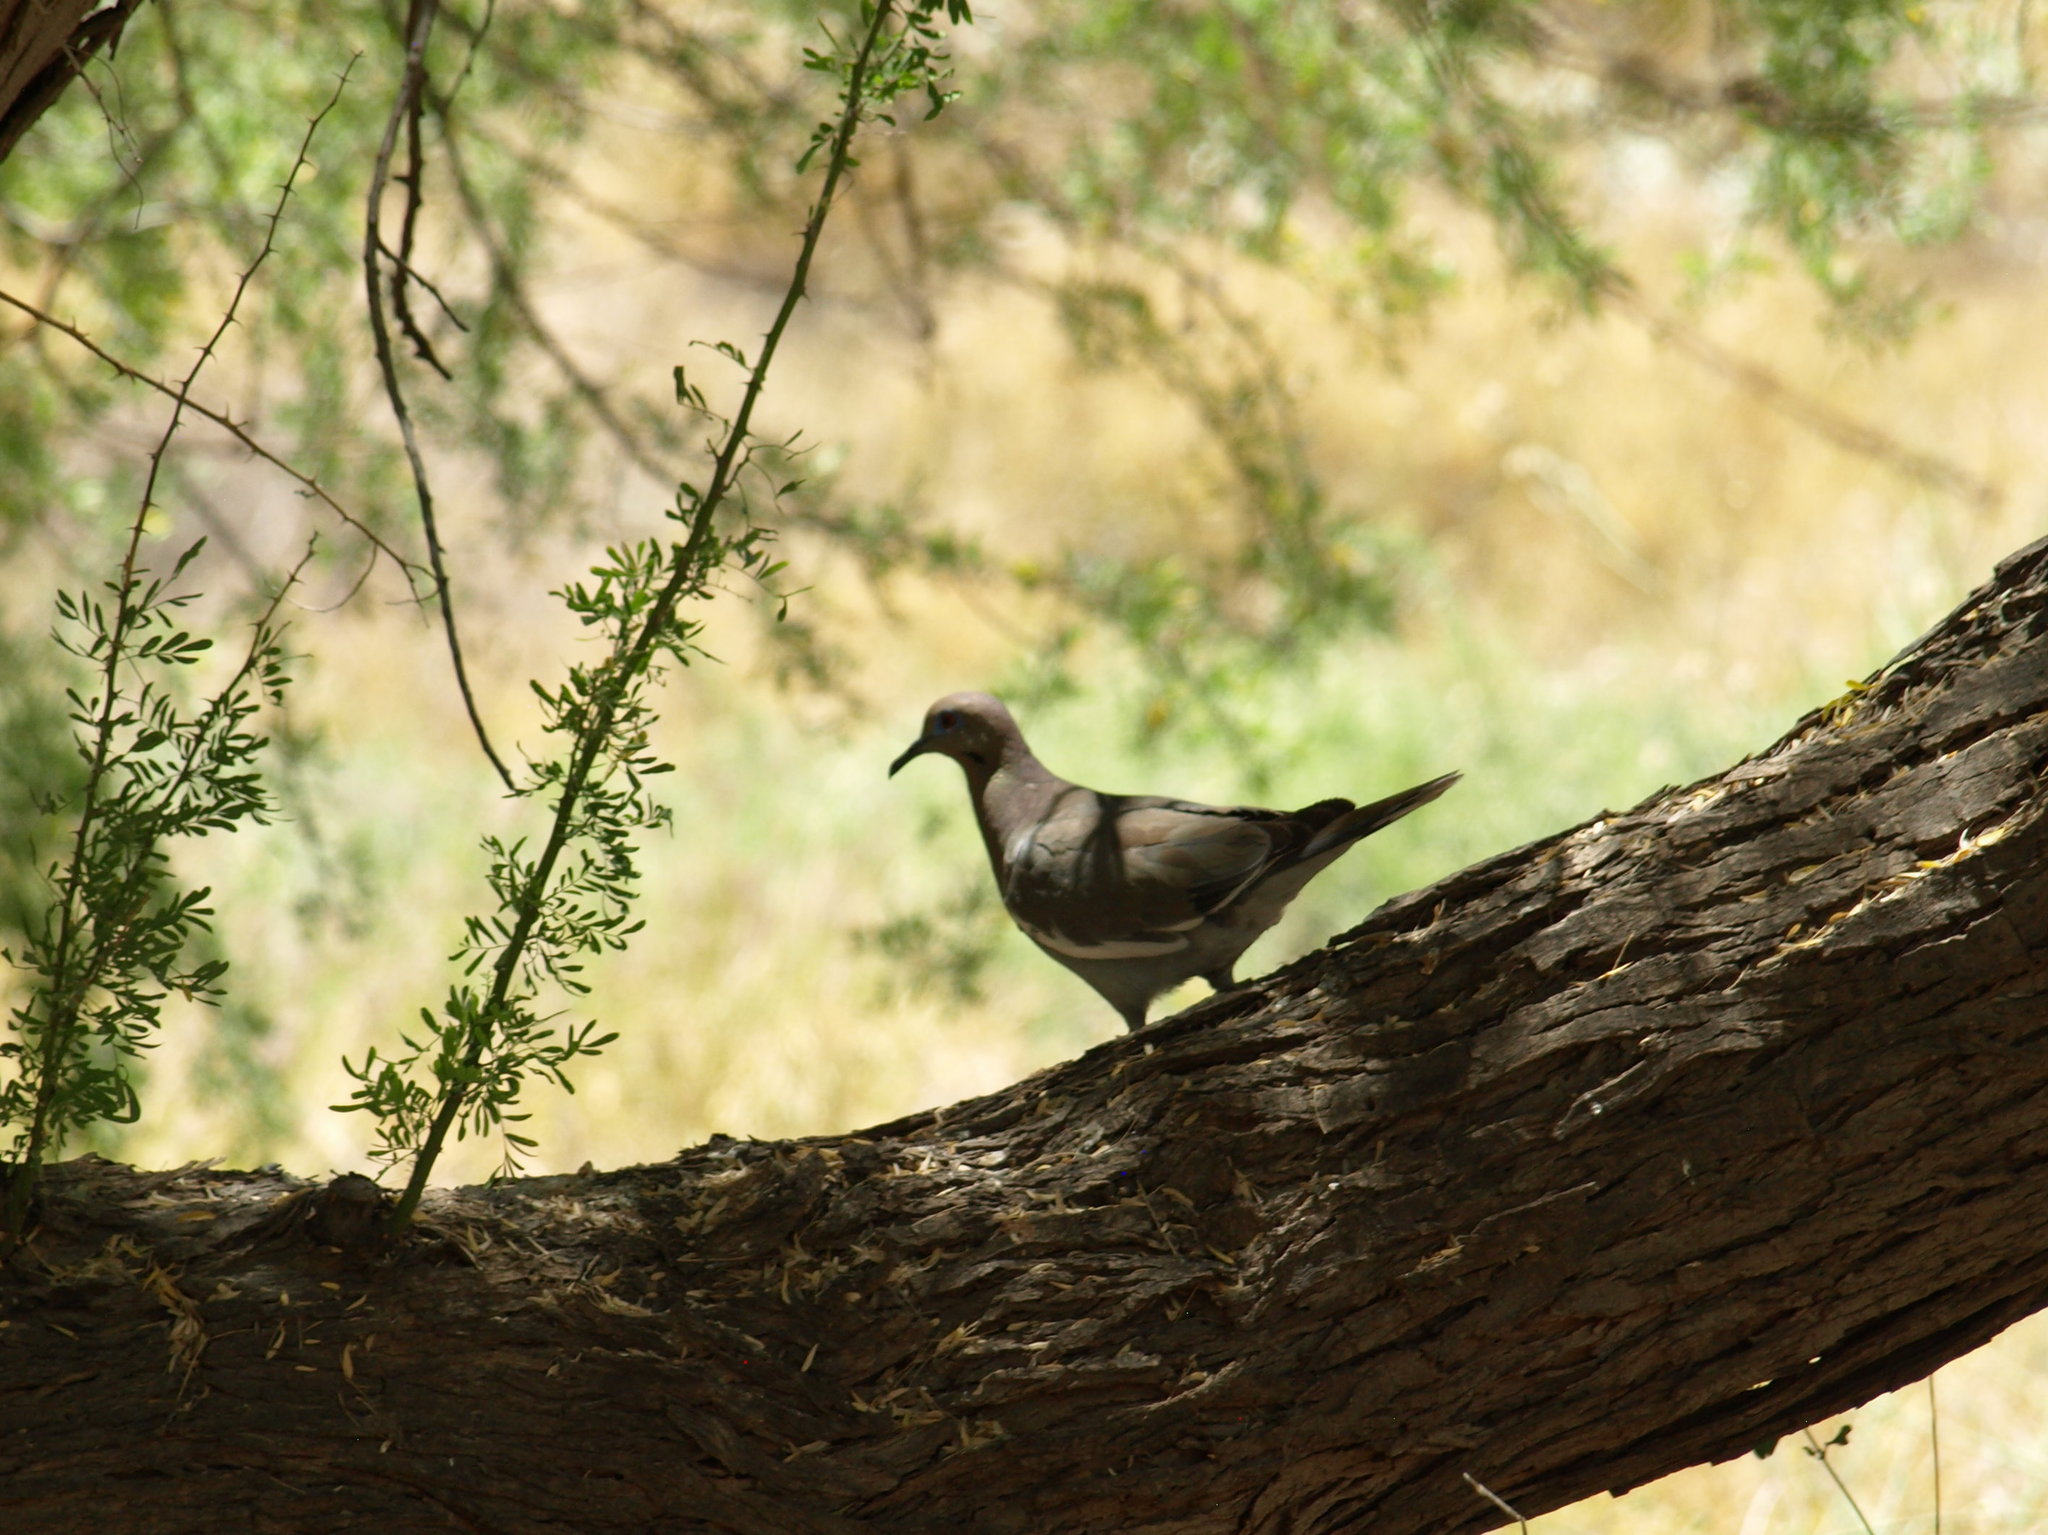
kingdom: Animalia
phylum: Chordata
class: Aves
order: Columbiformes
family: Columbidae
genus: Zenaida
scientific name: Zenaida asiatica
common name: White-winged dove
